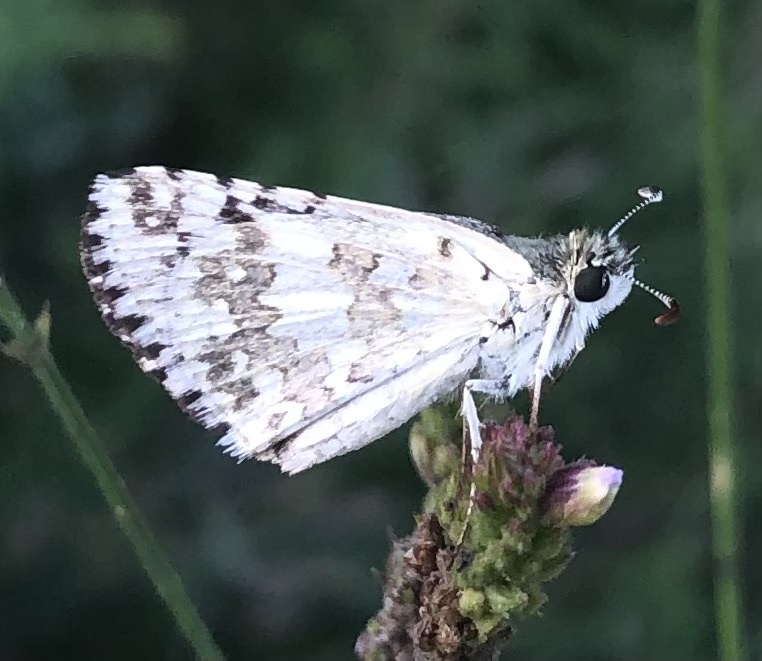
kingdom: Animalia
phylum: Arthropoda
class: Insecta
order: Lepidoptera
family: Hesperiidae
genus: Burnsius
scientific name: Burnsius communis
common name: Common checkered-skipper
